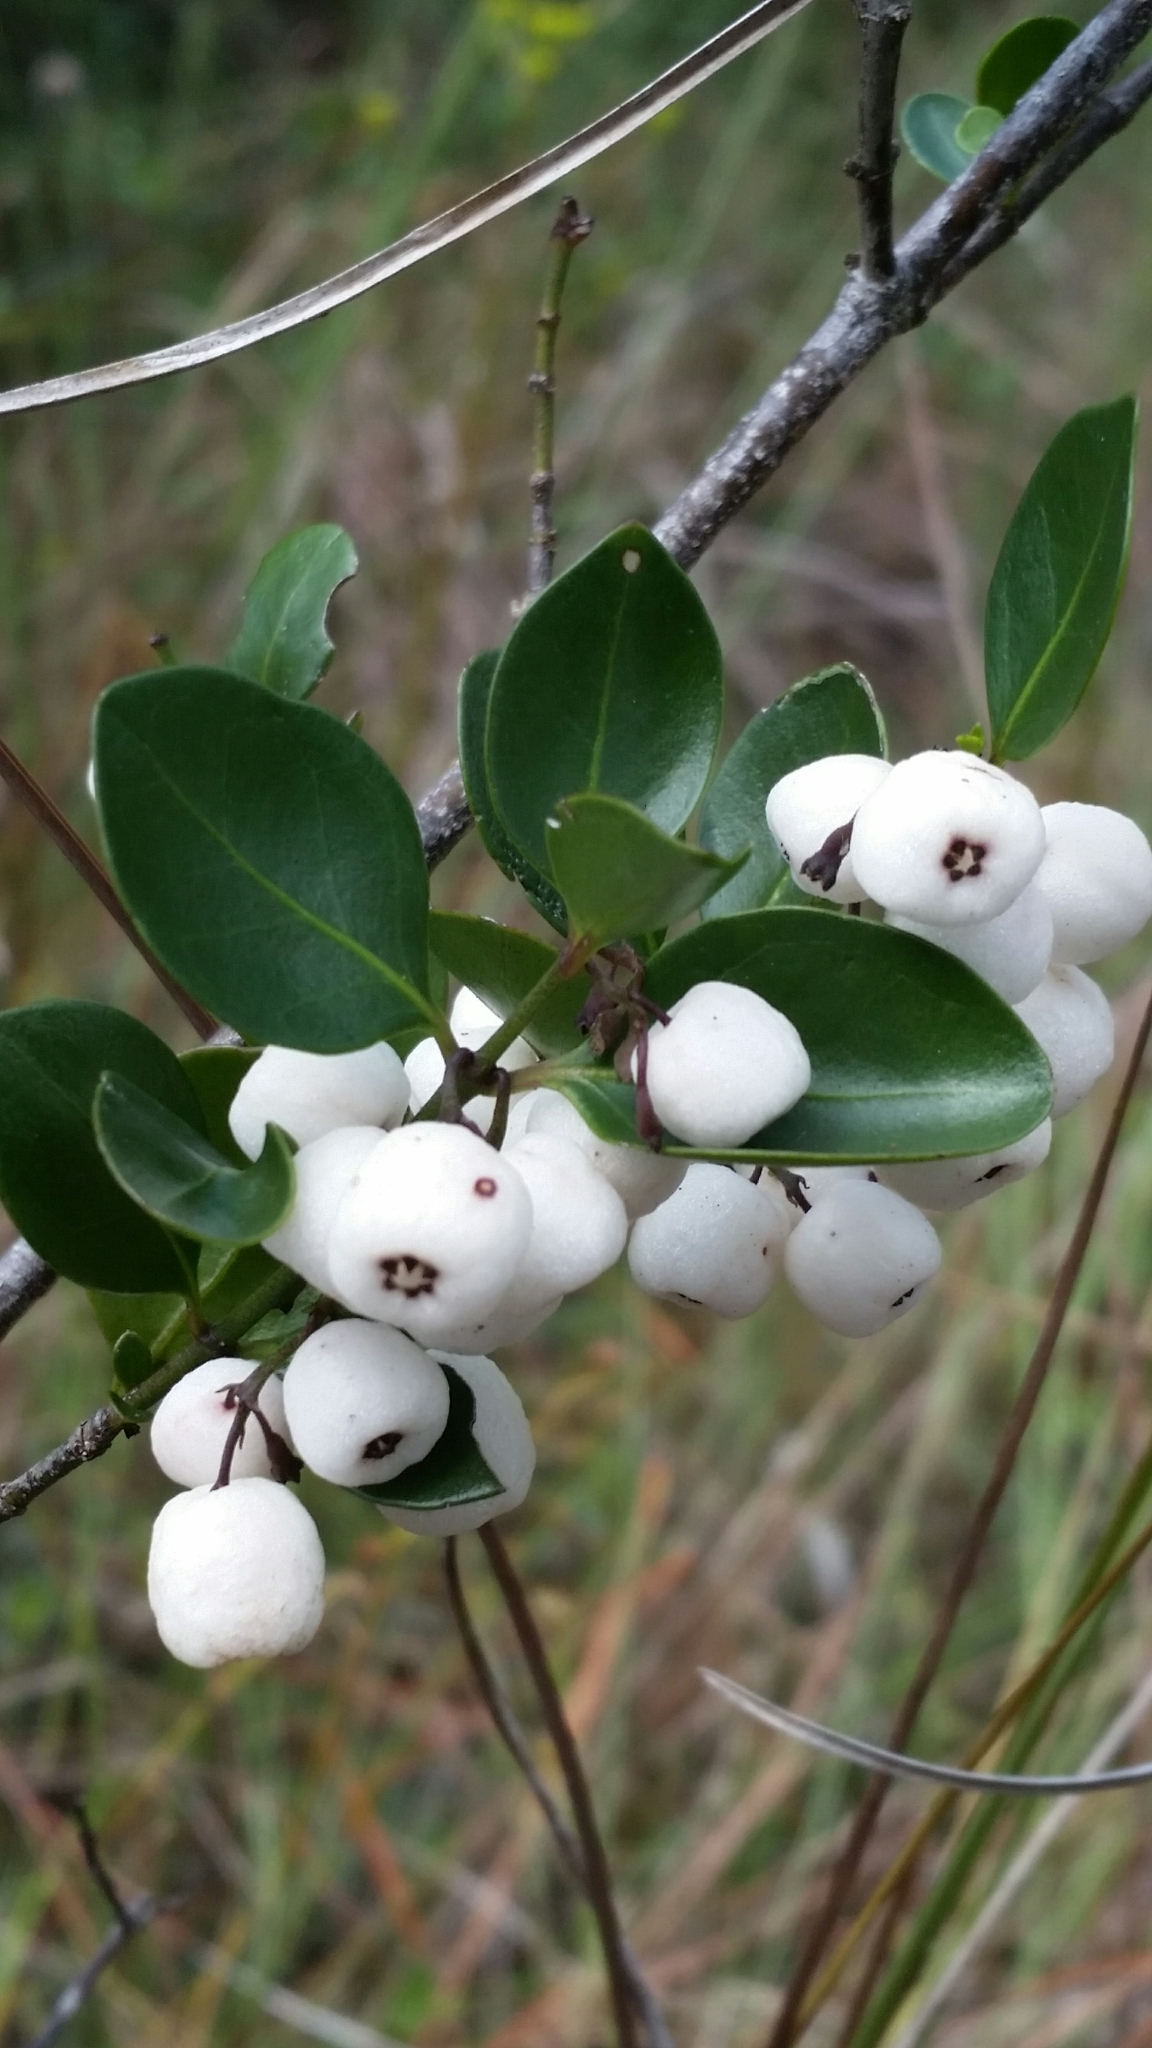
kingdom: Plantae
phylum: Tracheophyta
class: Magnoliopsida
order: Gentianales
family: Rubiaceae
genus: Chiococca
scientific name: Chiococca alba
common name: Snowberry
